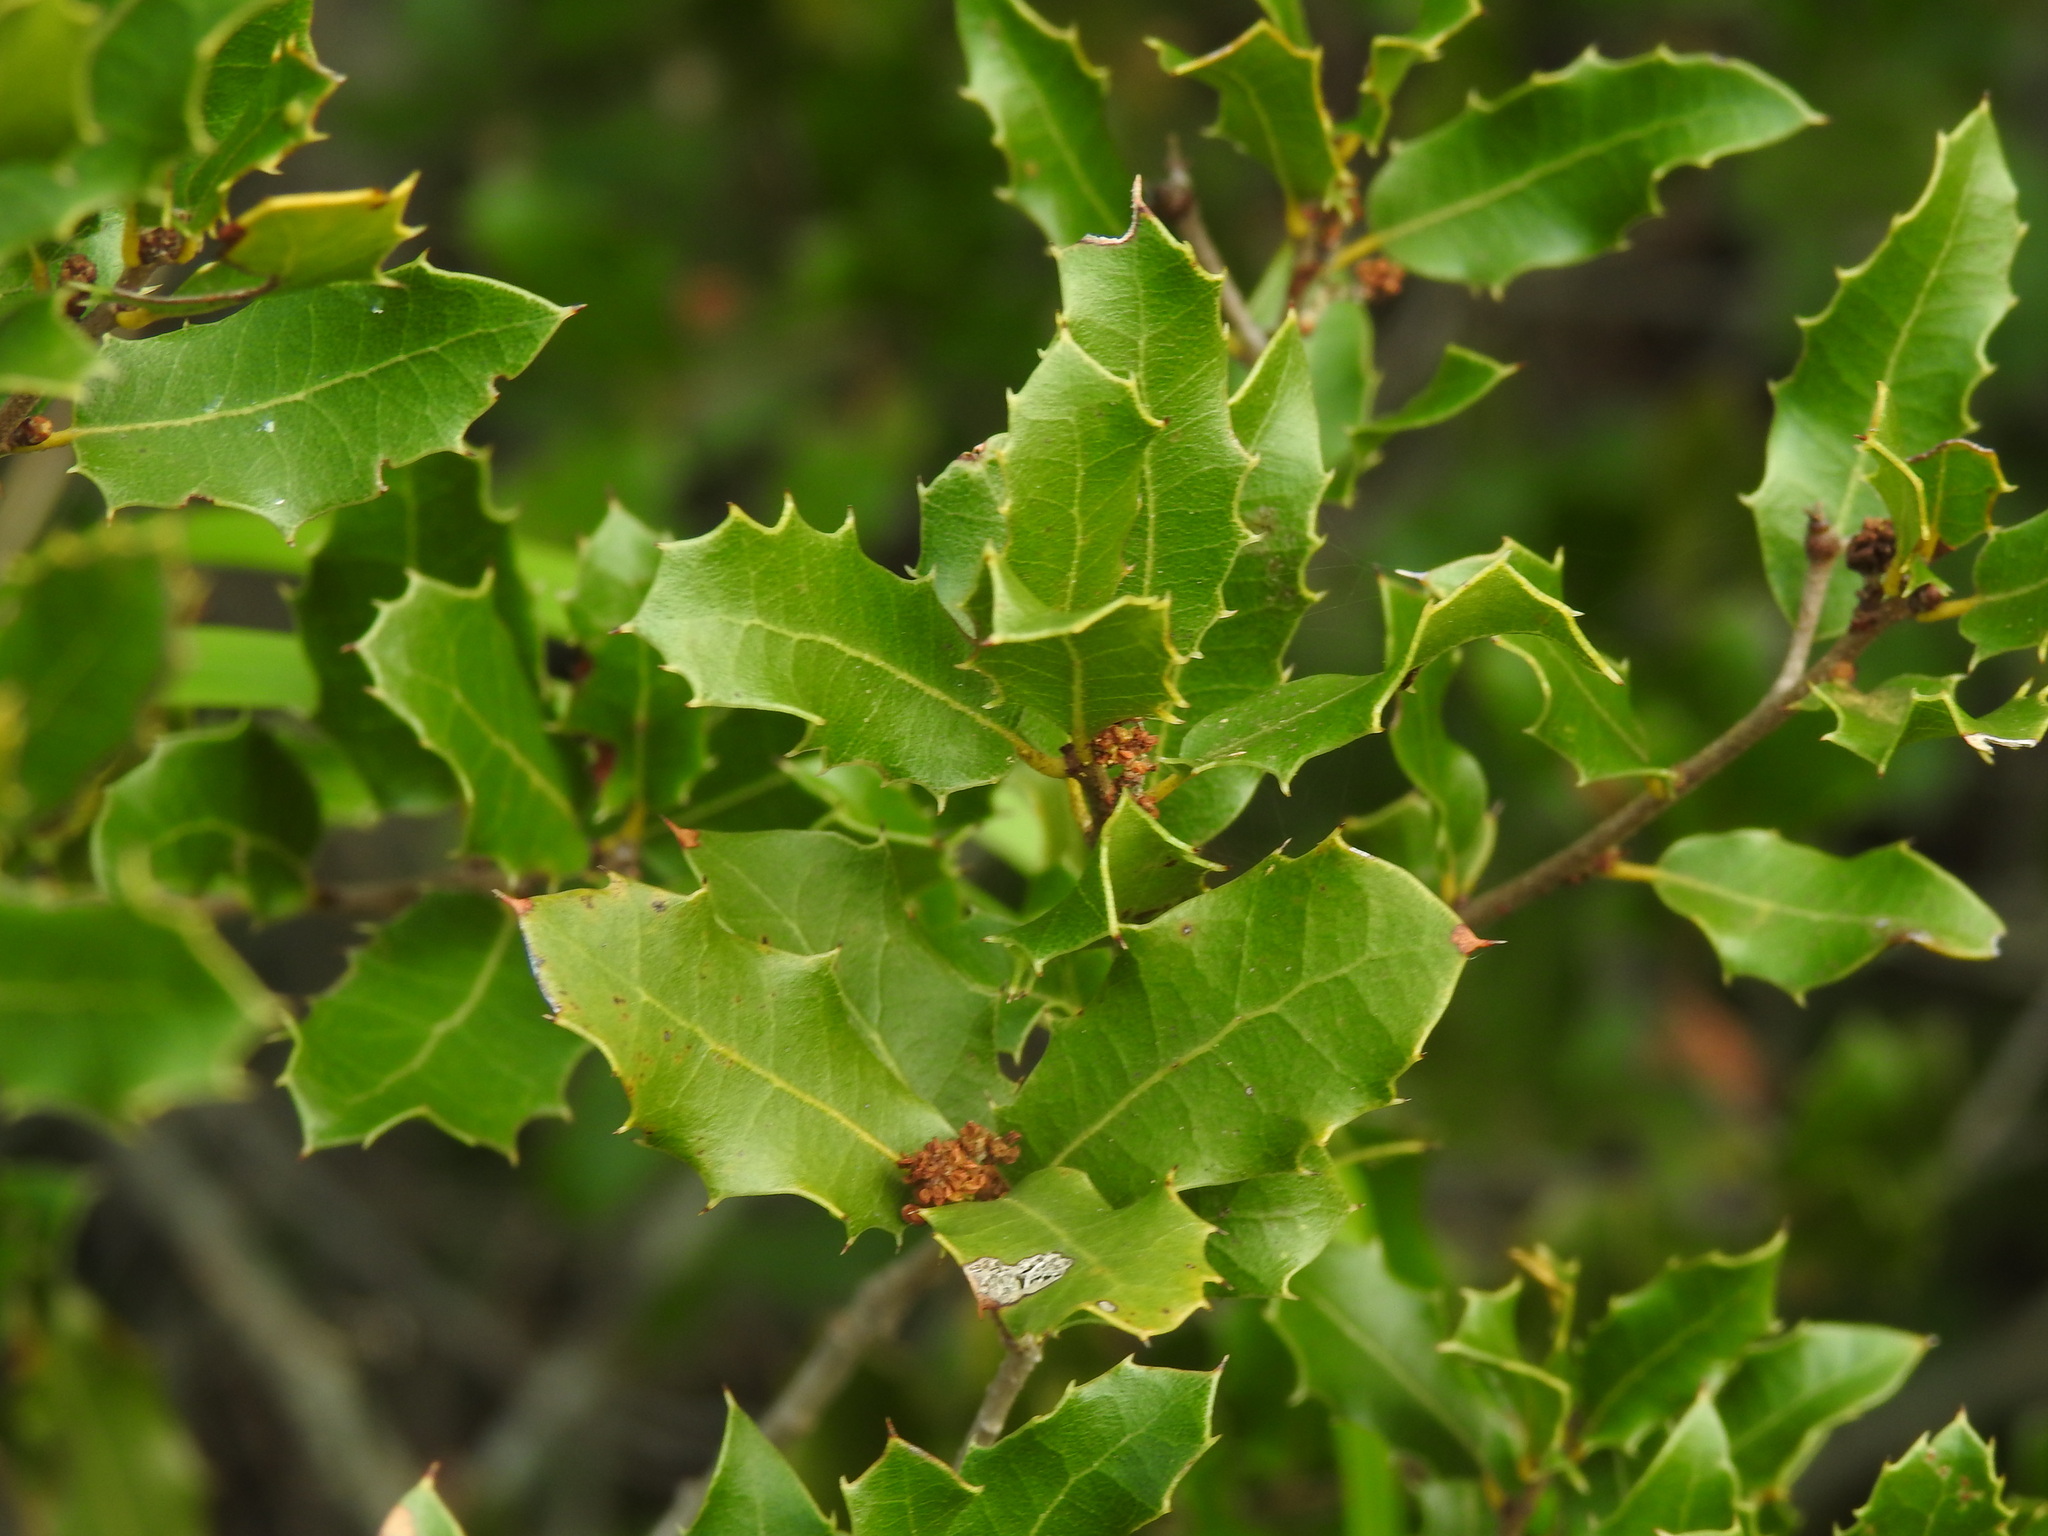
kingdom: Plantae
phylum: Tracheophyta
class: Magnoliopsida
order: Fagales
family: Fagaceae
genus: Quercus
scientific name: Quercus coccifera
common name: Kermes oak
